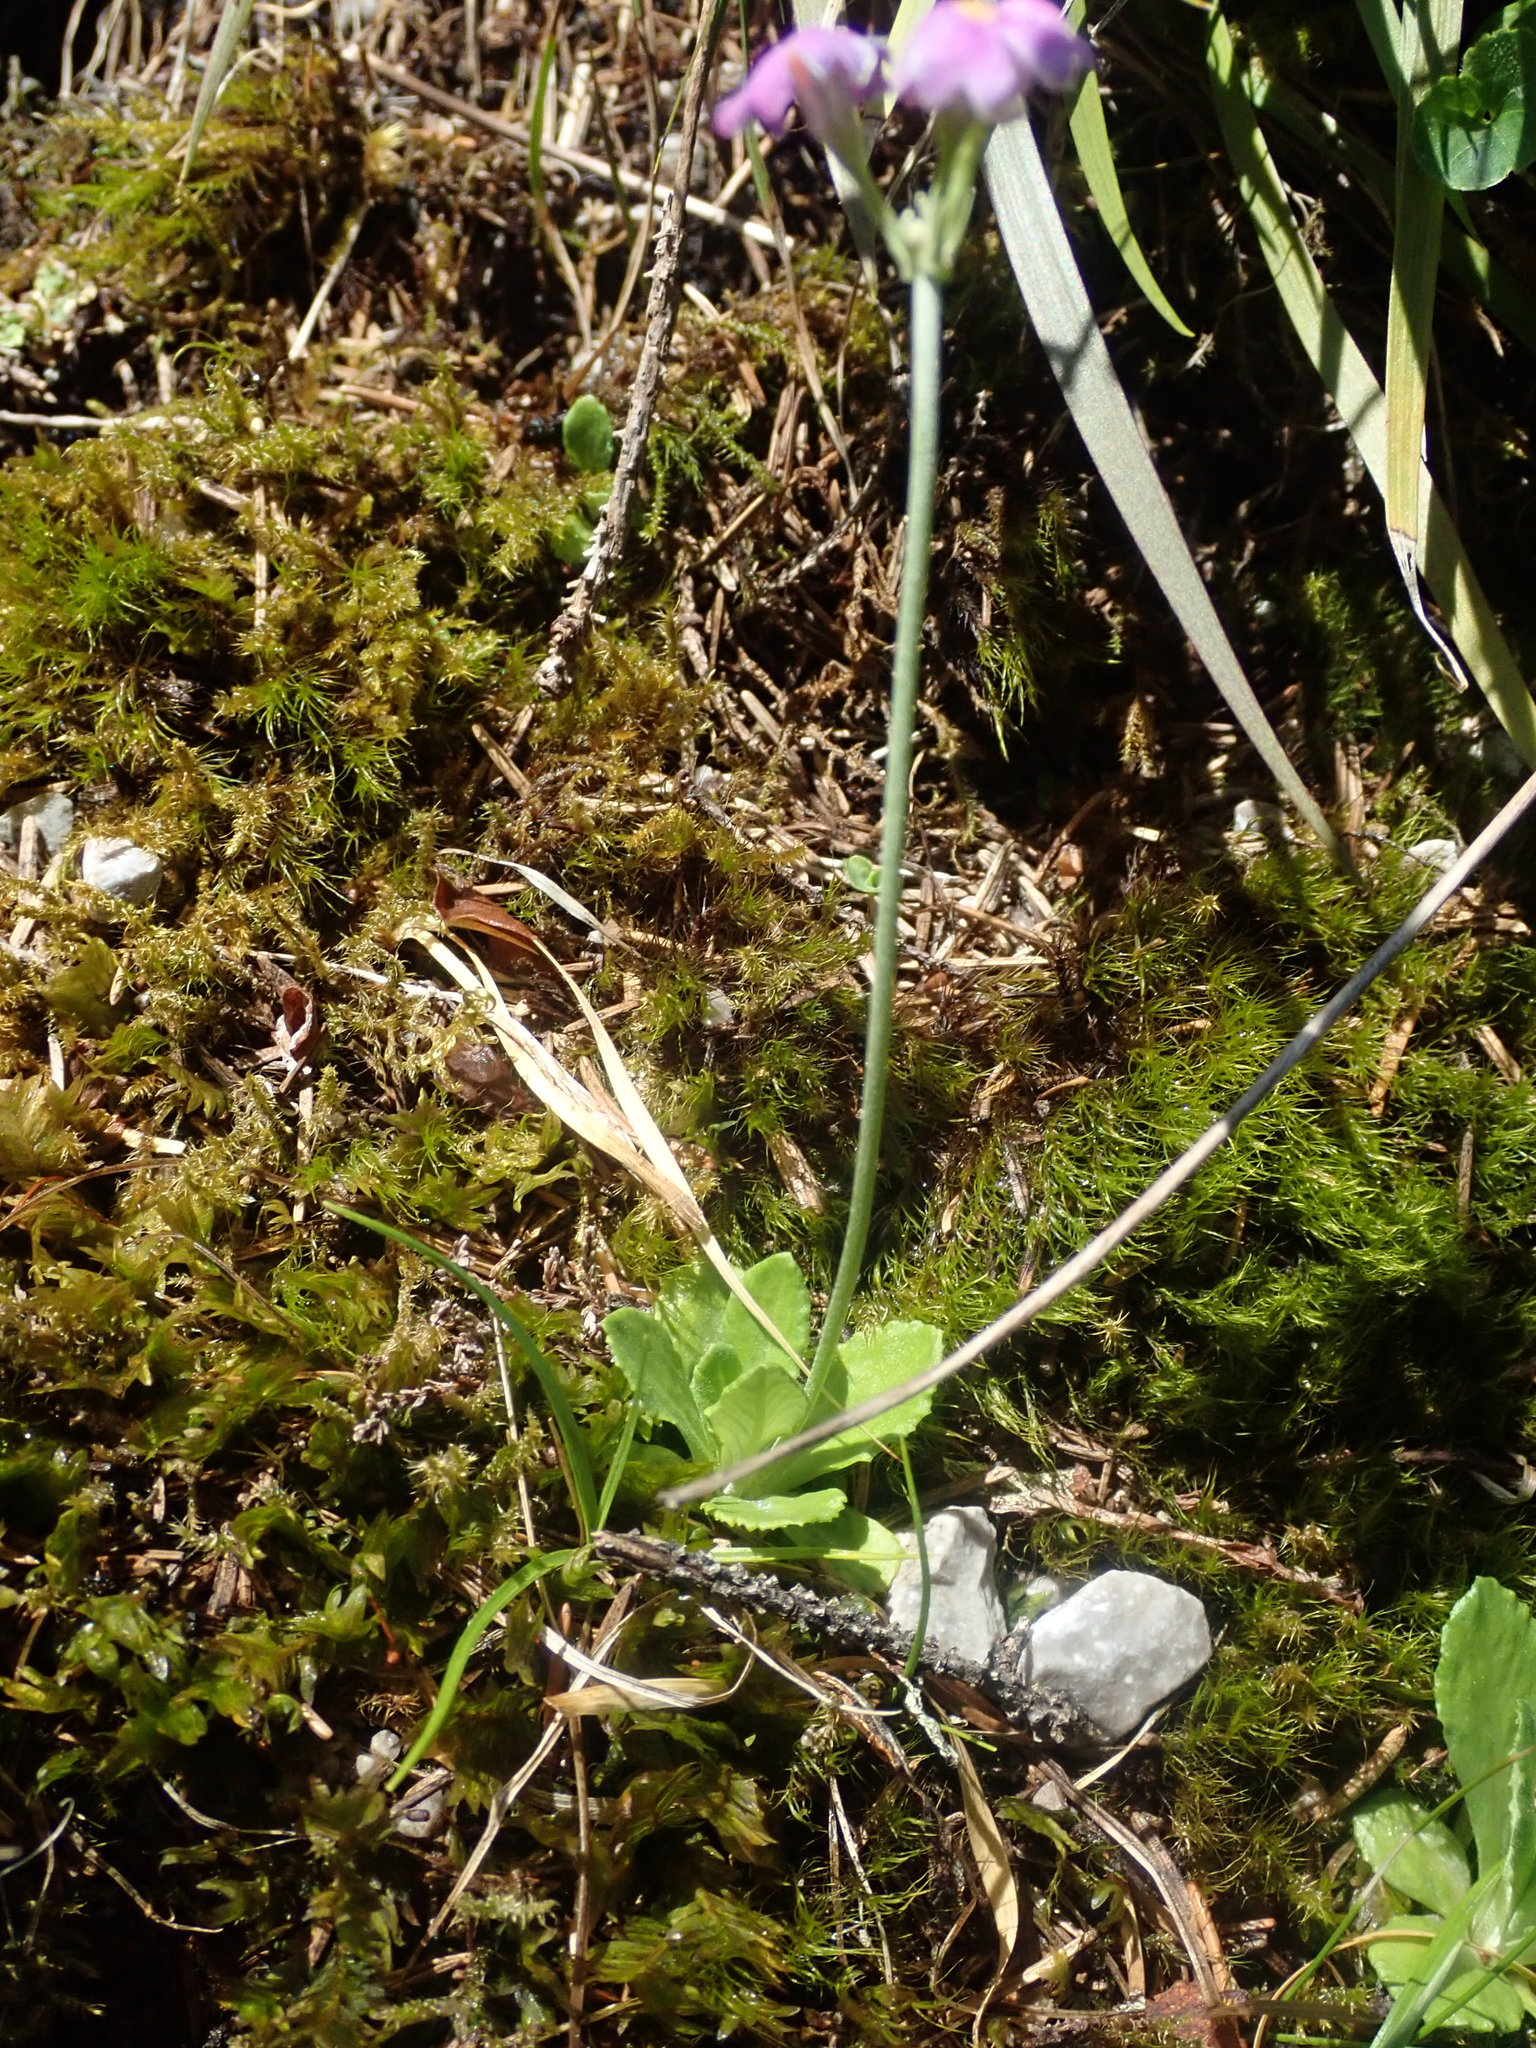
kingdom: Plantae
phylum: Tracheophyta
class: Magnoliopsida
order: Ericales
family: Primulaceae
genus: Primula
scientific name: Primula farinosa
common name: Bird's-eye primrose
